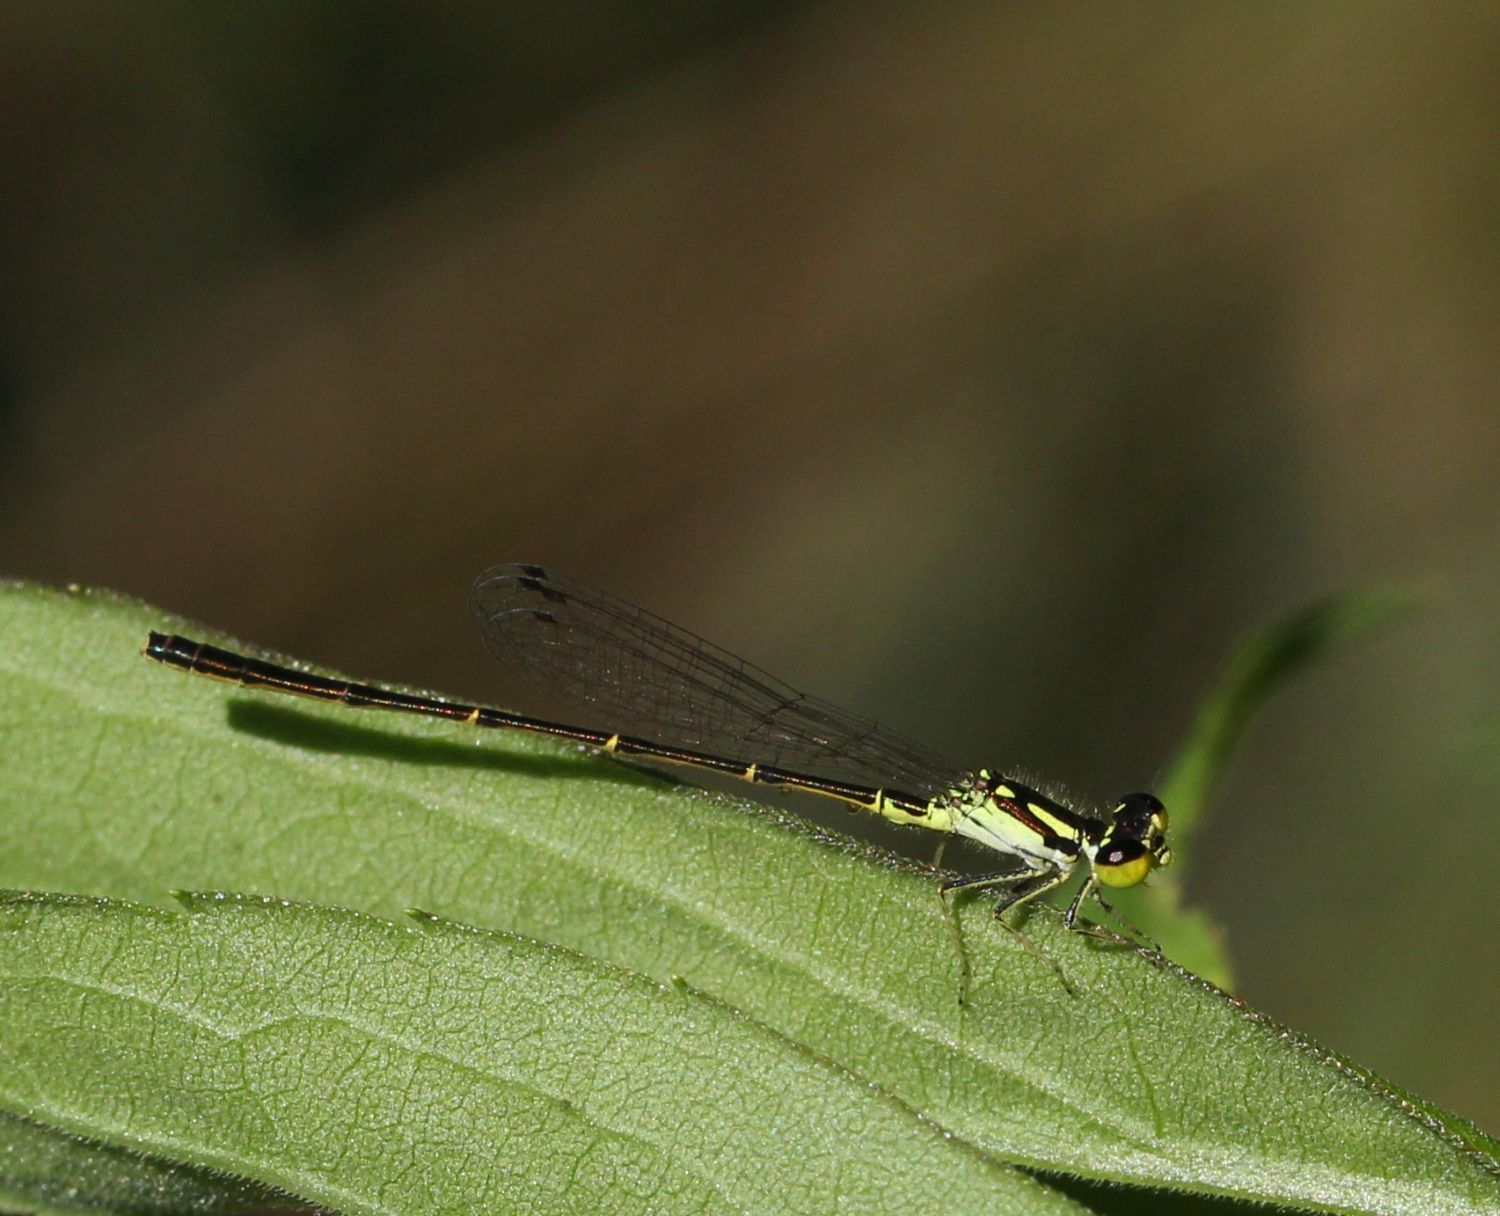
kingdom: Animalia
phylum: Arthropoda
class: Insecta
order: Odonata
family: Coenagrionidae
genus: Ischnura
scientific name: Ischnura posita
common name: Fragile forktail
